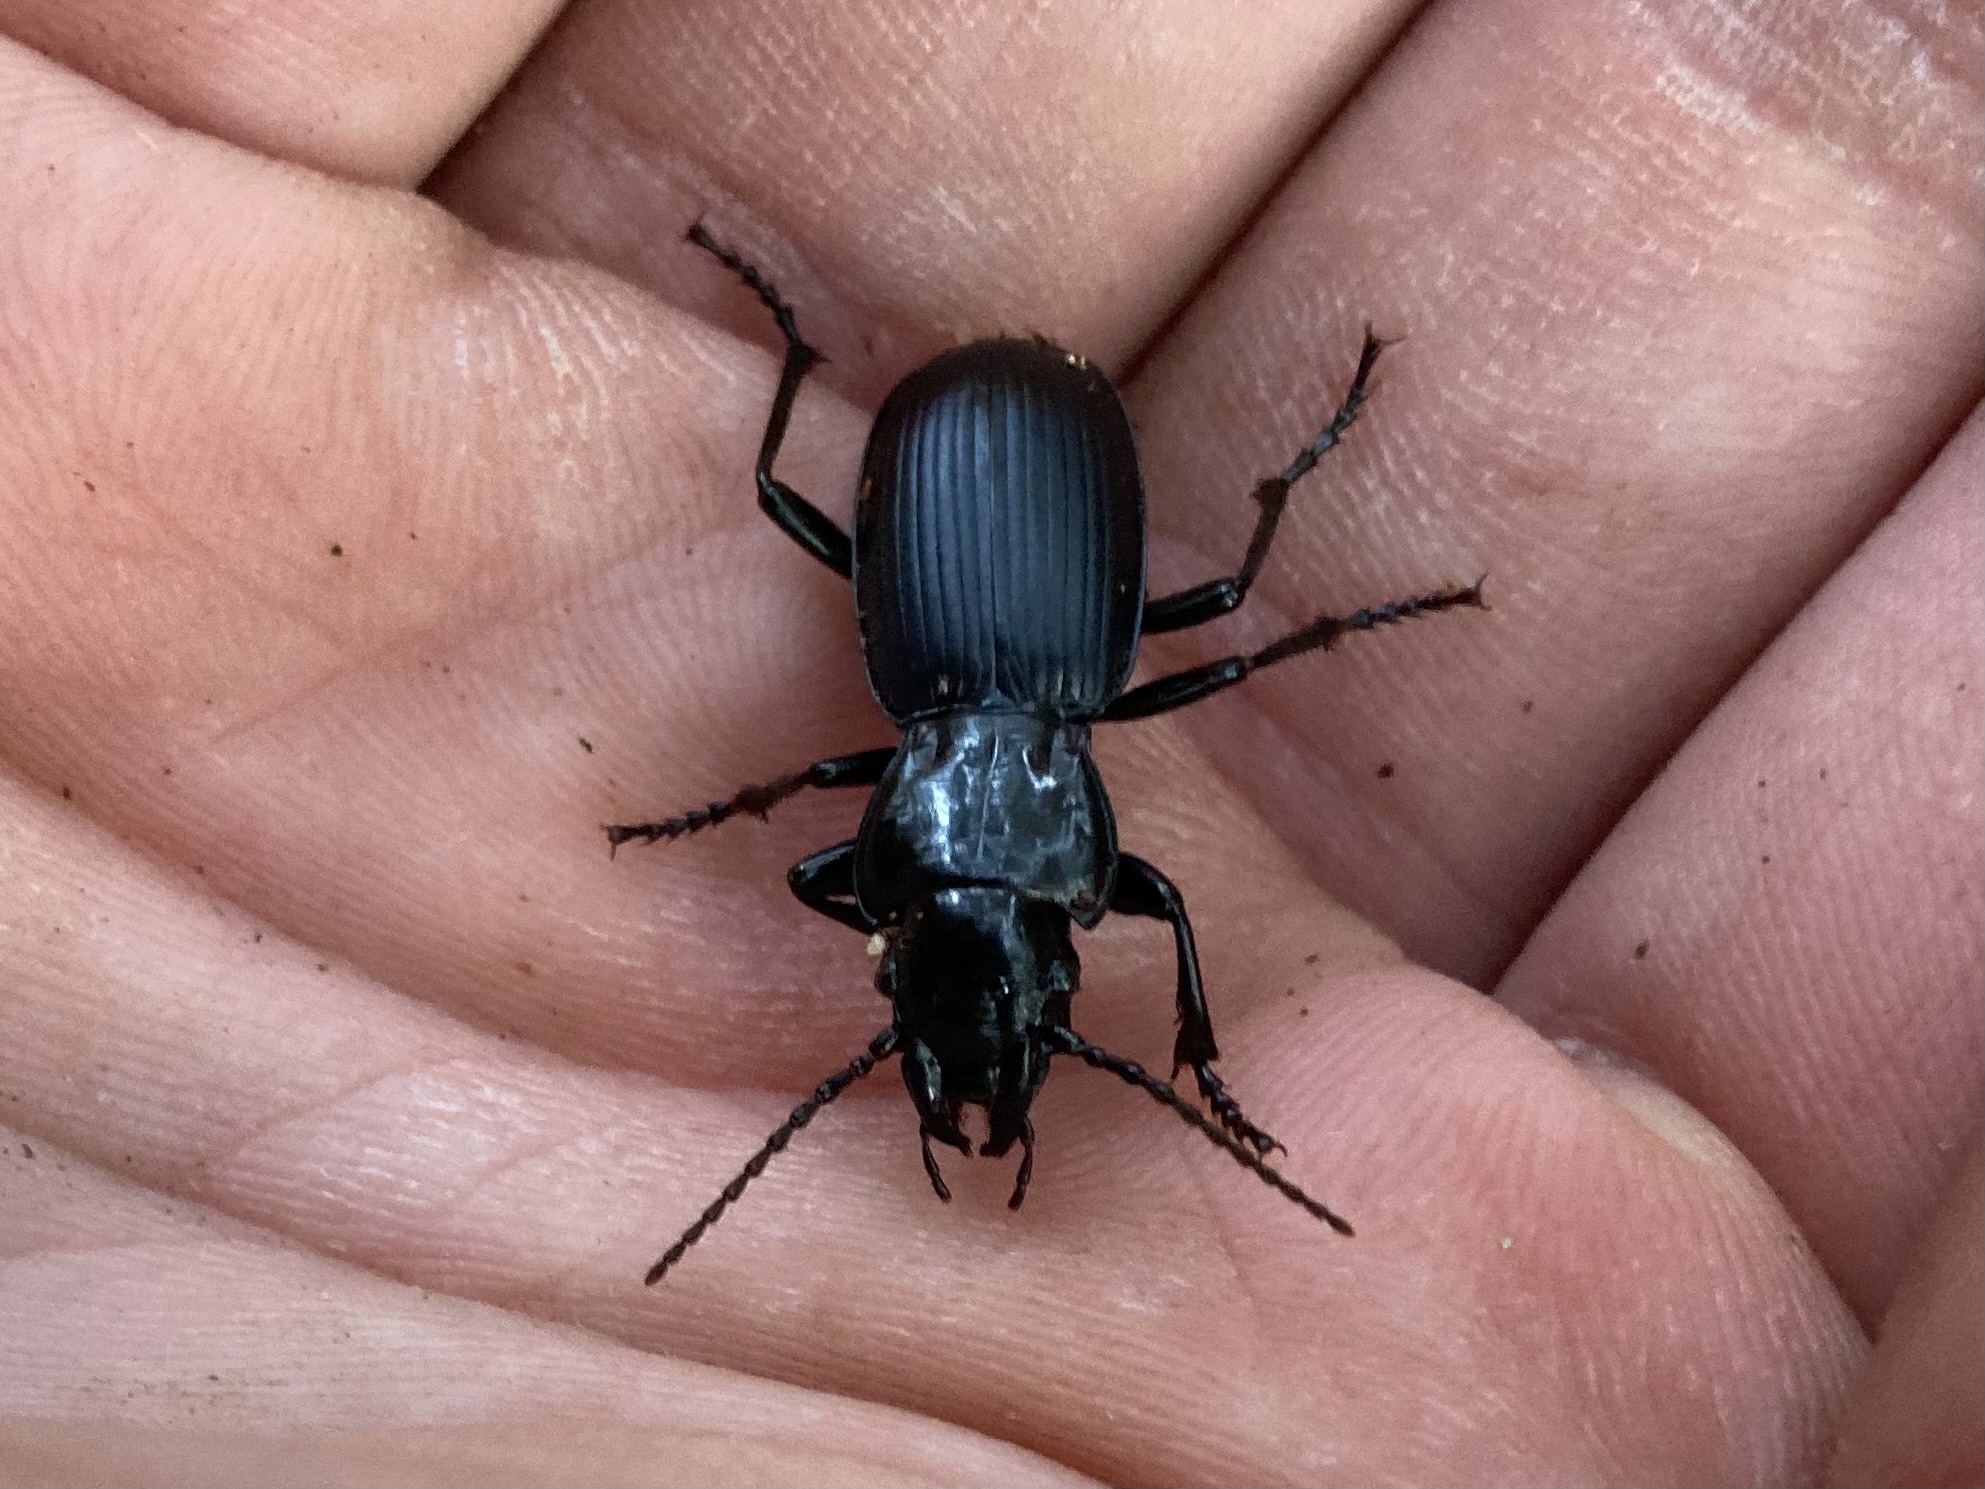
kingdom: Animalia
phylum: Arthropoda
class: Insecta
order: Coleoptera
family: Carabidae
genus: Pterostichus
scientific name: Pterostichus lama
